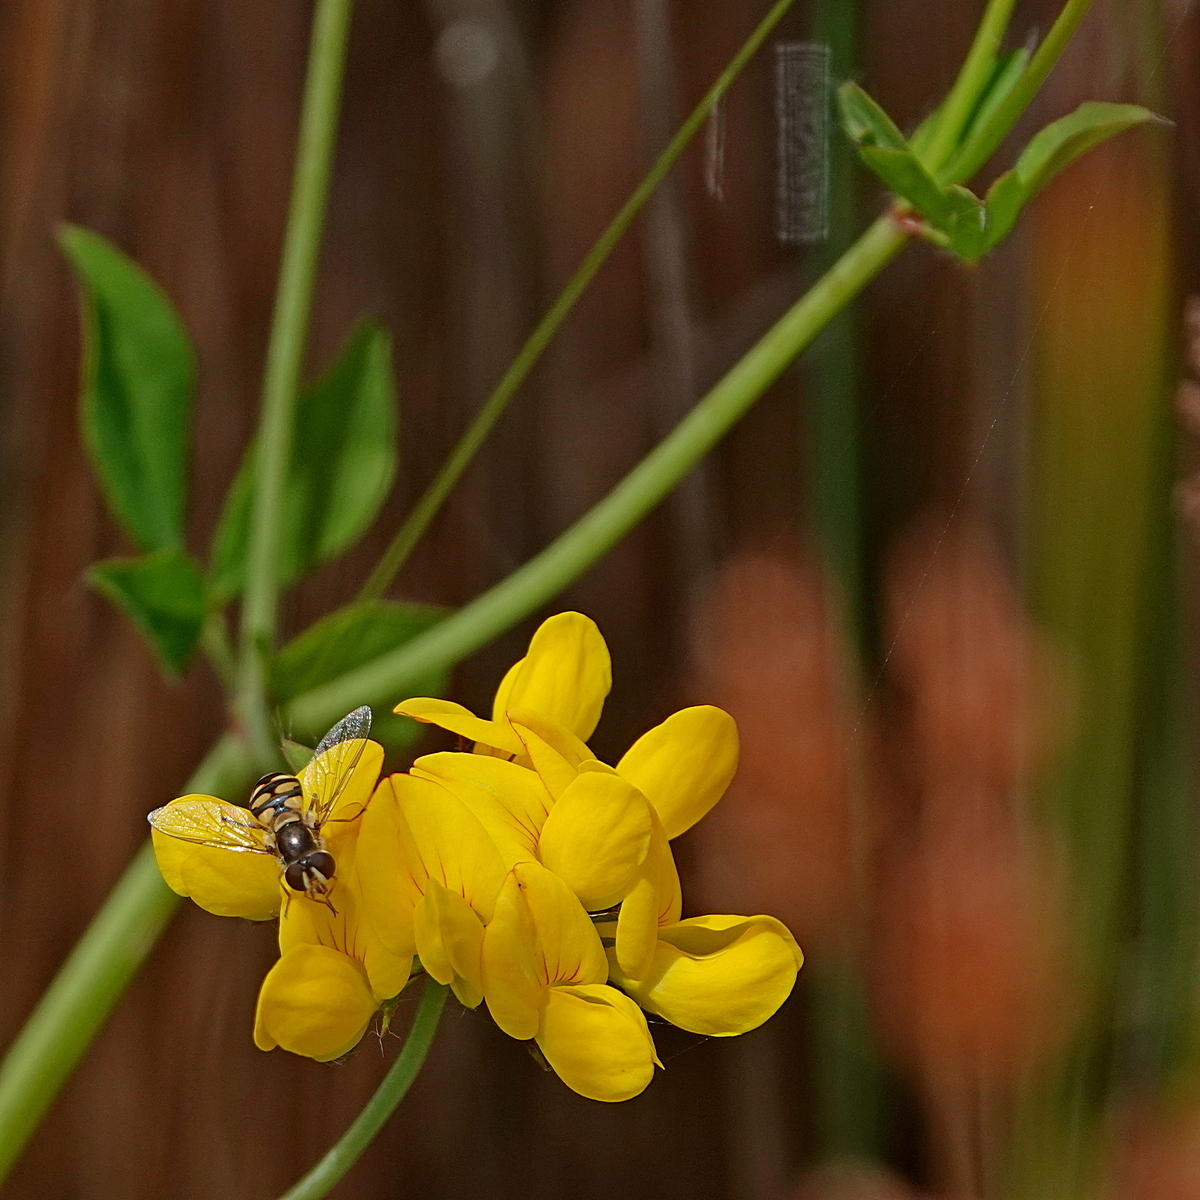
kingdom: Plantae
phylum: Tracheophyta
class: Magnoliopsida
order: Fabales
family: Fabaceae
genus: Lotus
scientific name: Lotus
